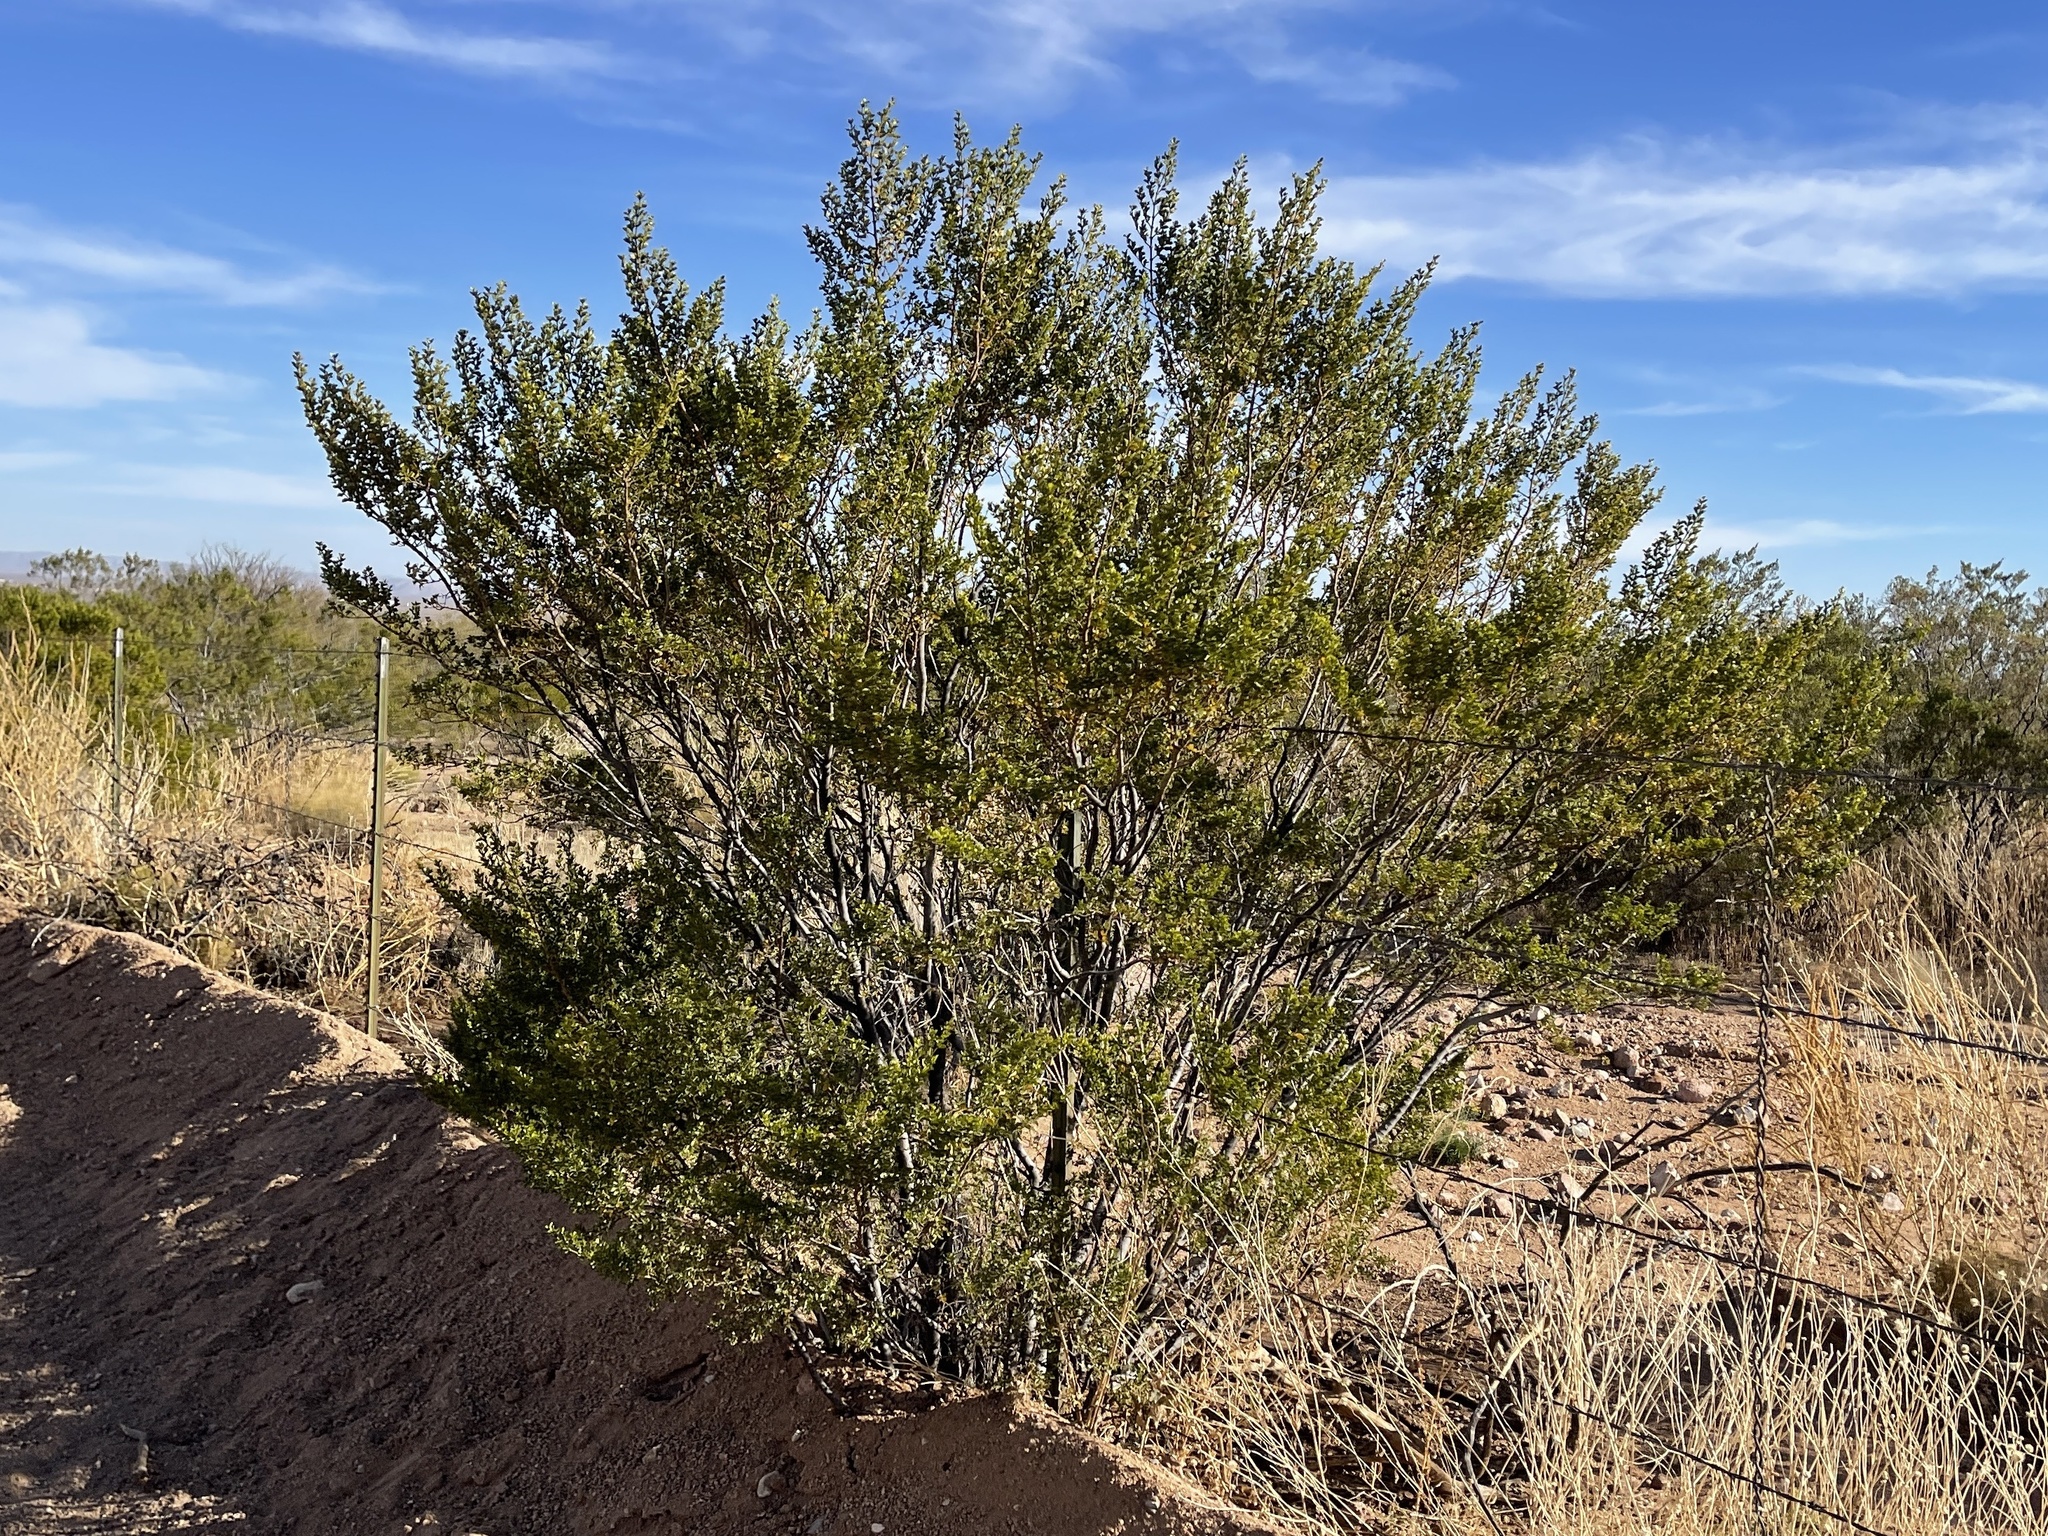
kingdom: Plantae
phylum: Tracheophyta
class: Magnoliopsida
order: Zygophyllales
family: Zygophyllaceae
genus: Larrea
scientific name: Larrea tridentata
